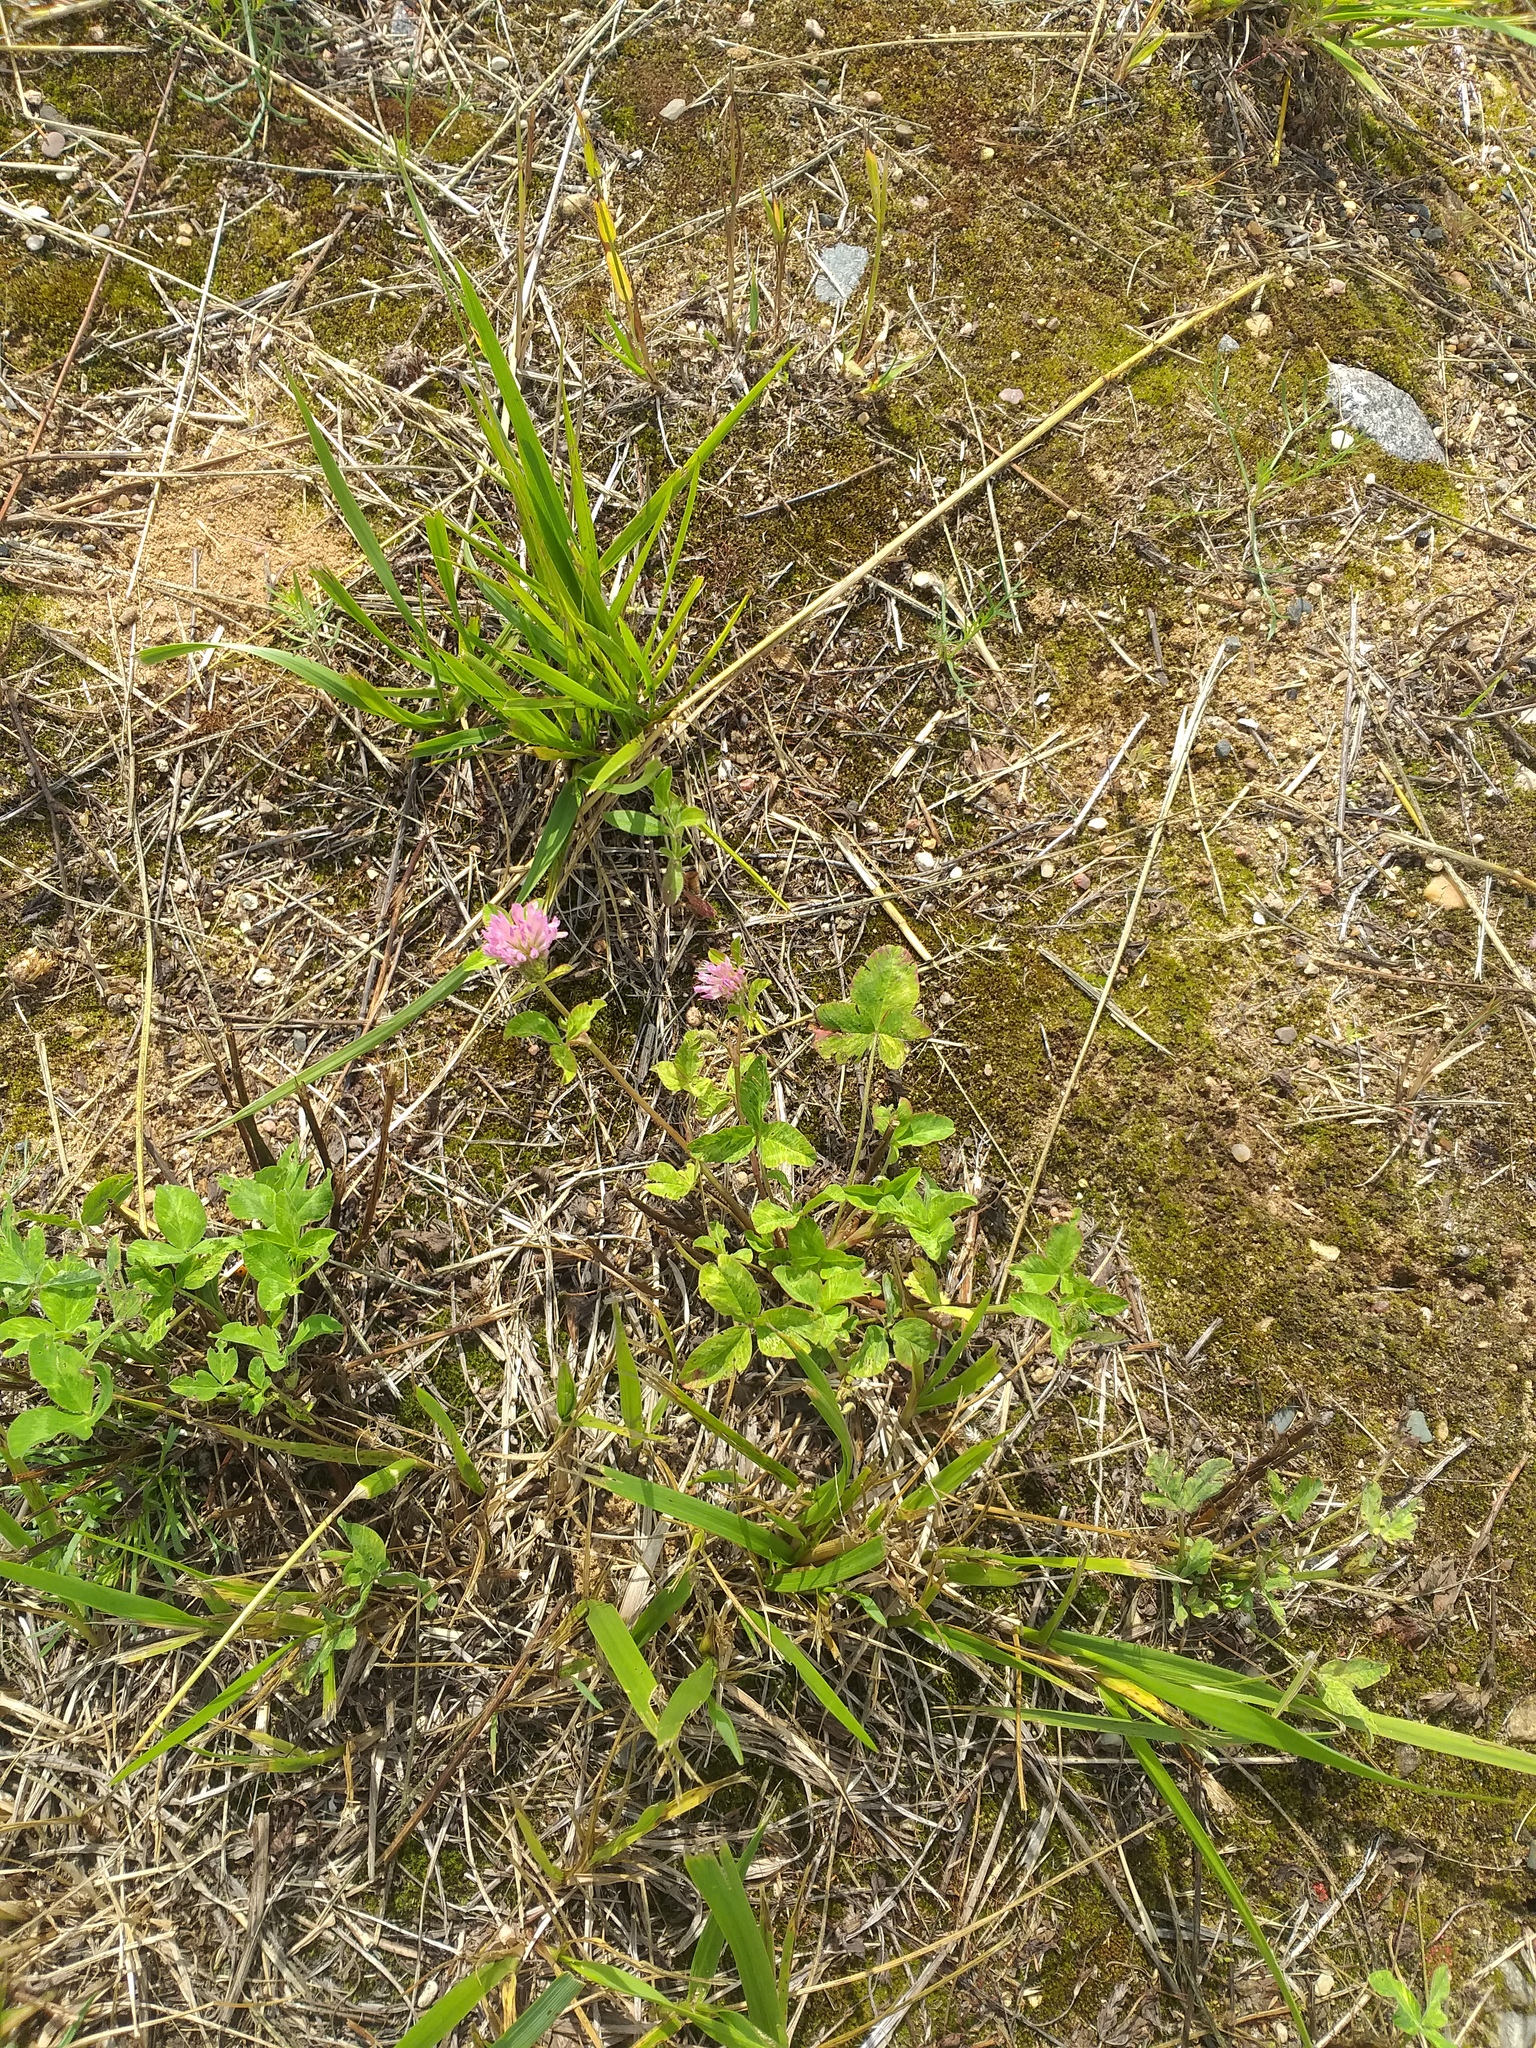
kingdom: Plantae
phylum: Tracheophyta
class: Magnoliopsida
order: Fabales
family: Fabaceae
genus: Trifolium
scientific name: Trifolium pratense
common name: Red clover
